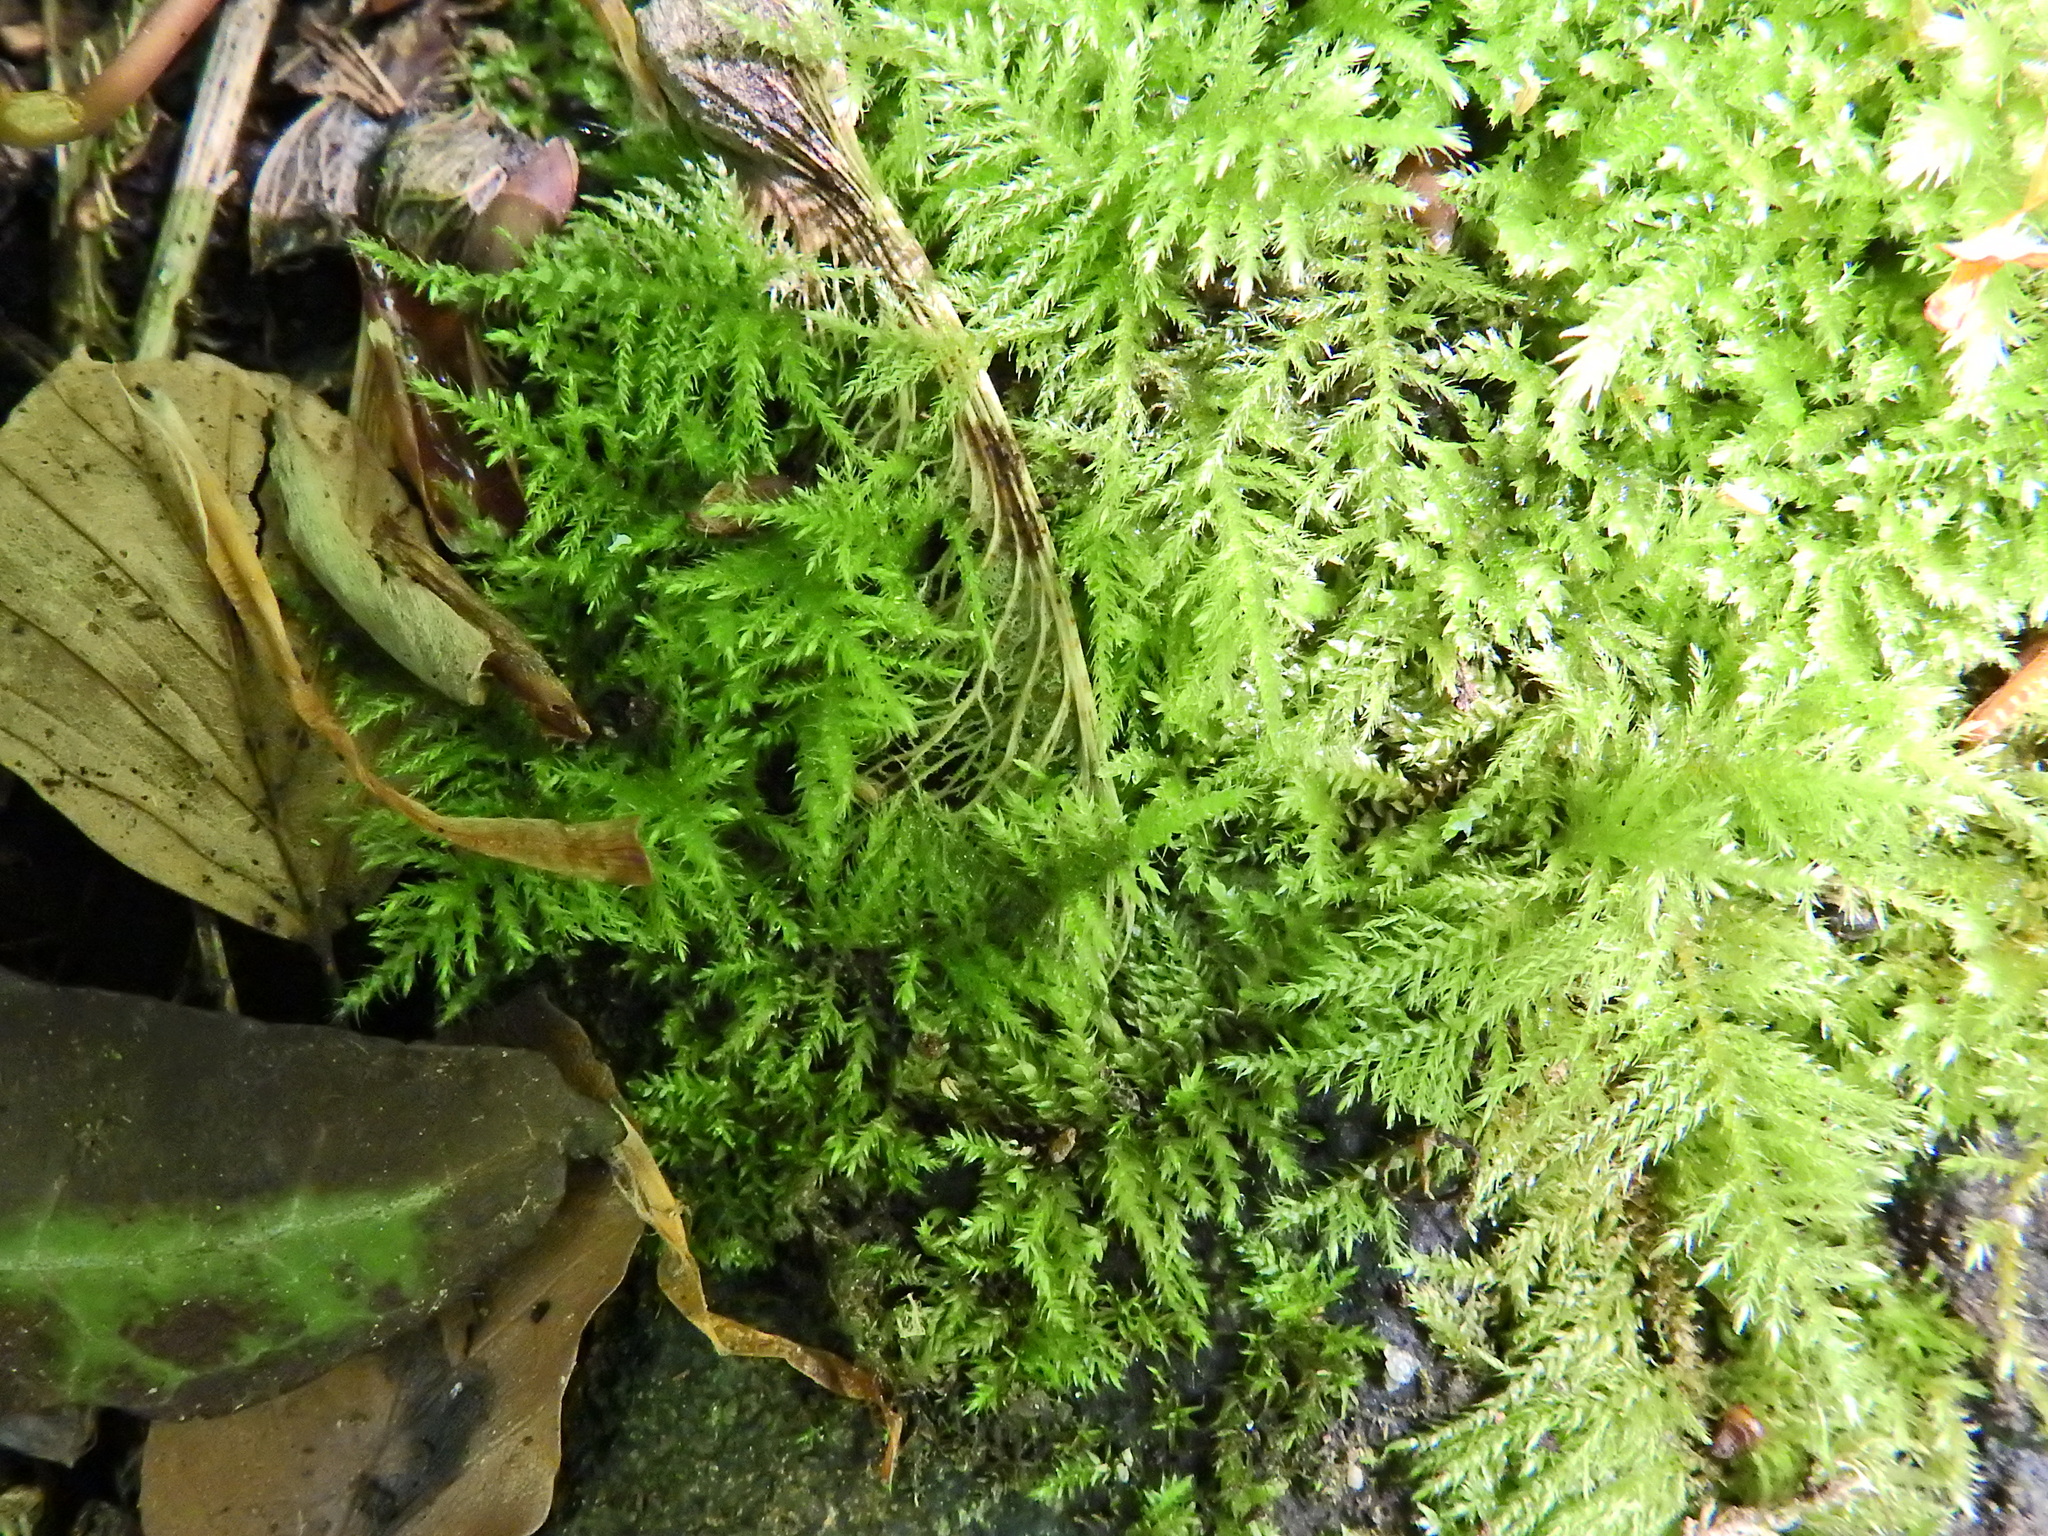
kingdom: Plantae
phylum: Bryophyta
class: Bryopsida
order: Hypnales
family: Brachytheciaceae
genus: Kindbergia
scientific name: Kindbergia praelonga
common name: Slender beaked moss
